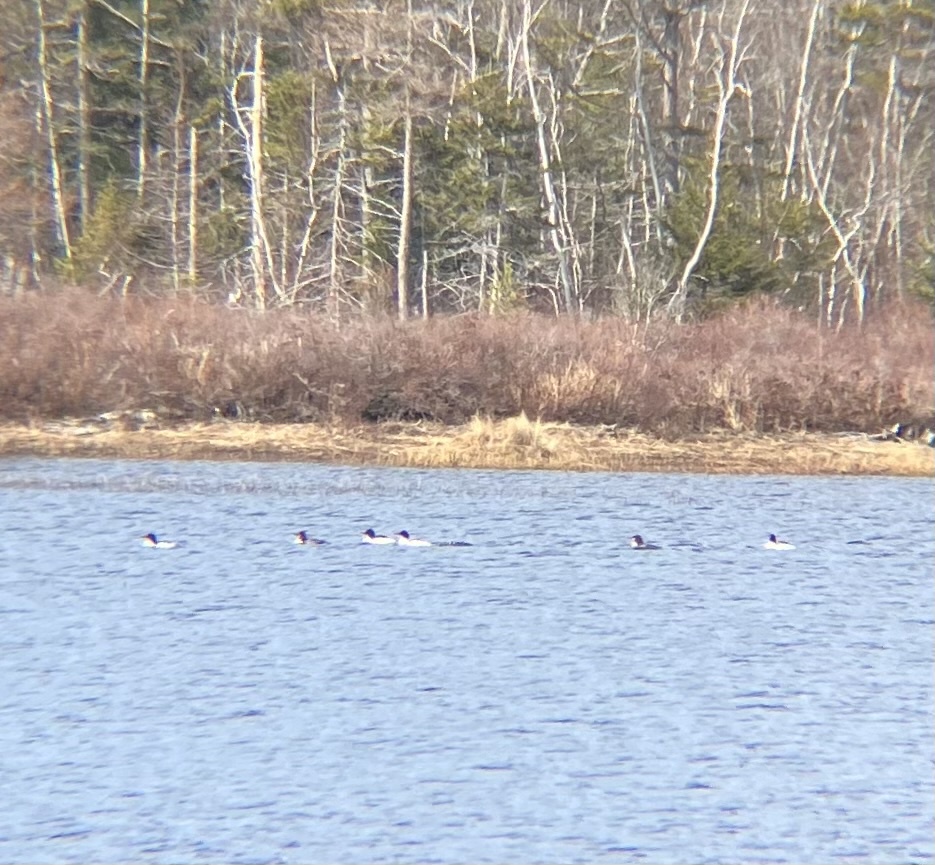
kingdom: Animalia
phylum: Chordata
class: Aves
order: Anseriformes
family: Anatidae
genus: Mergus
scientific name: Mergus merganser
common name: Common merganser
